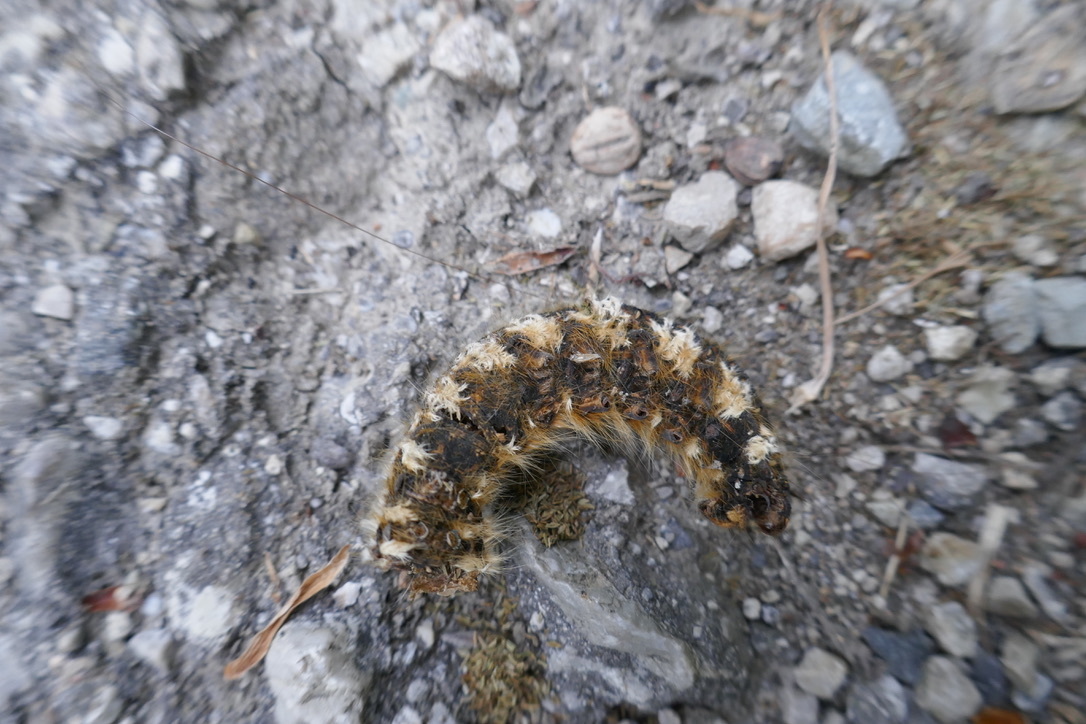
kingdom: Animalia
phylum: Arthropoda
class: Insecta
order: Lepidoptera
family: Lasiocampidae
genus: Euthrix
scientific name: Euthrix potatoria
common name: Drinker
